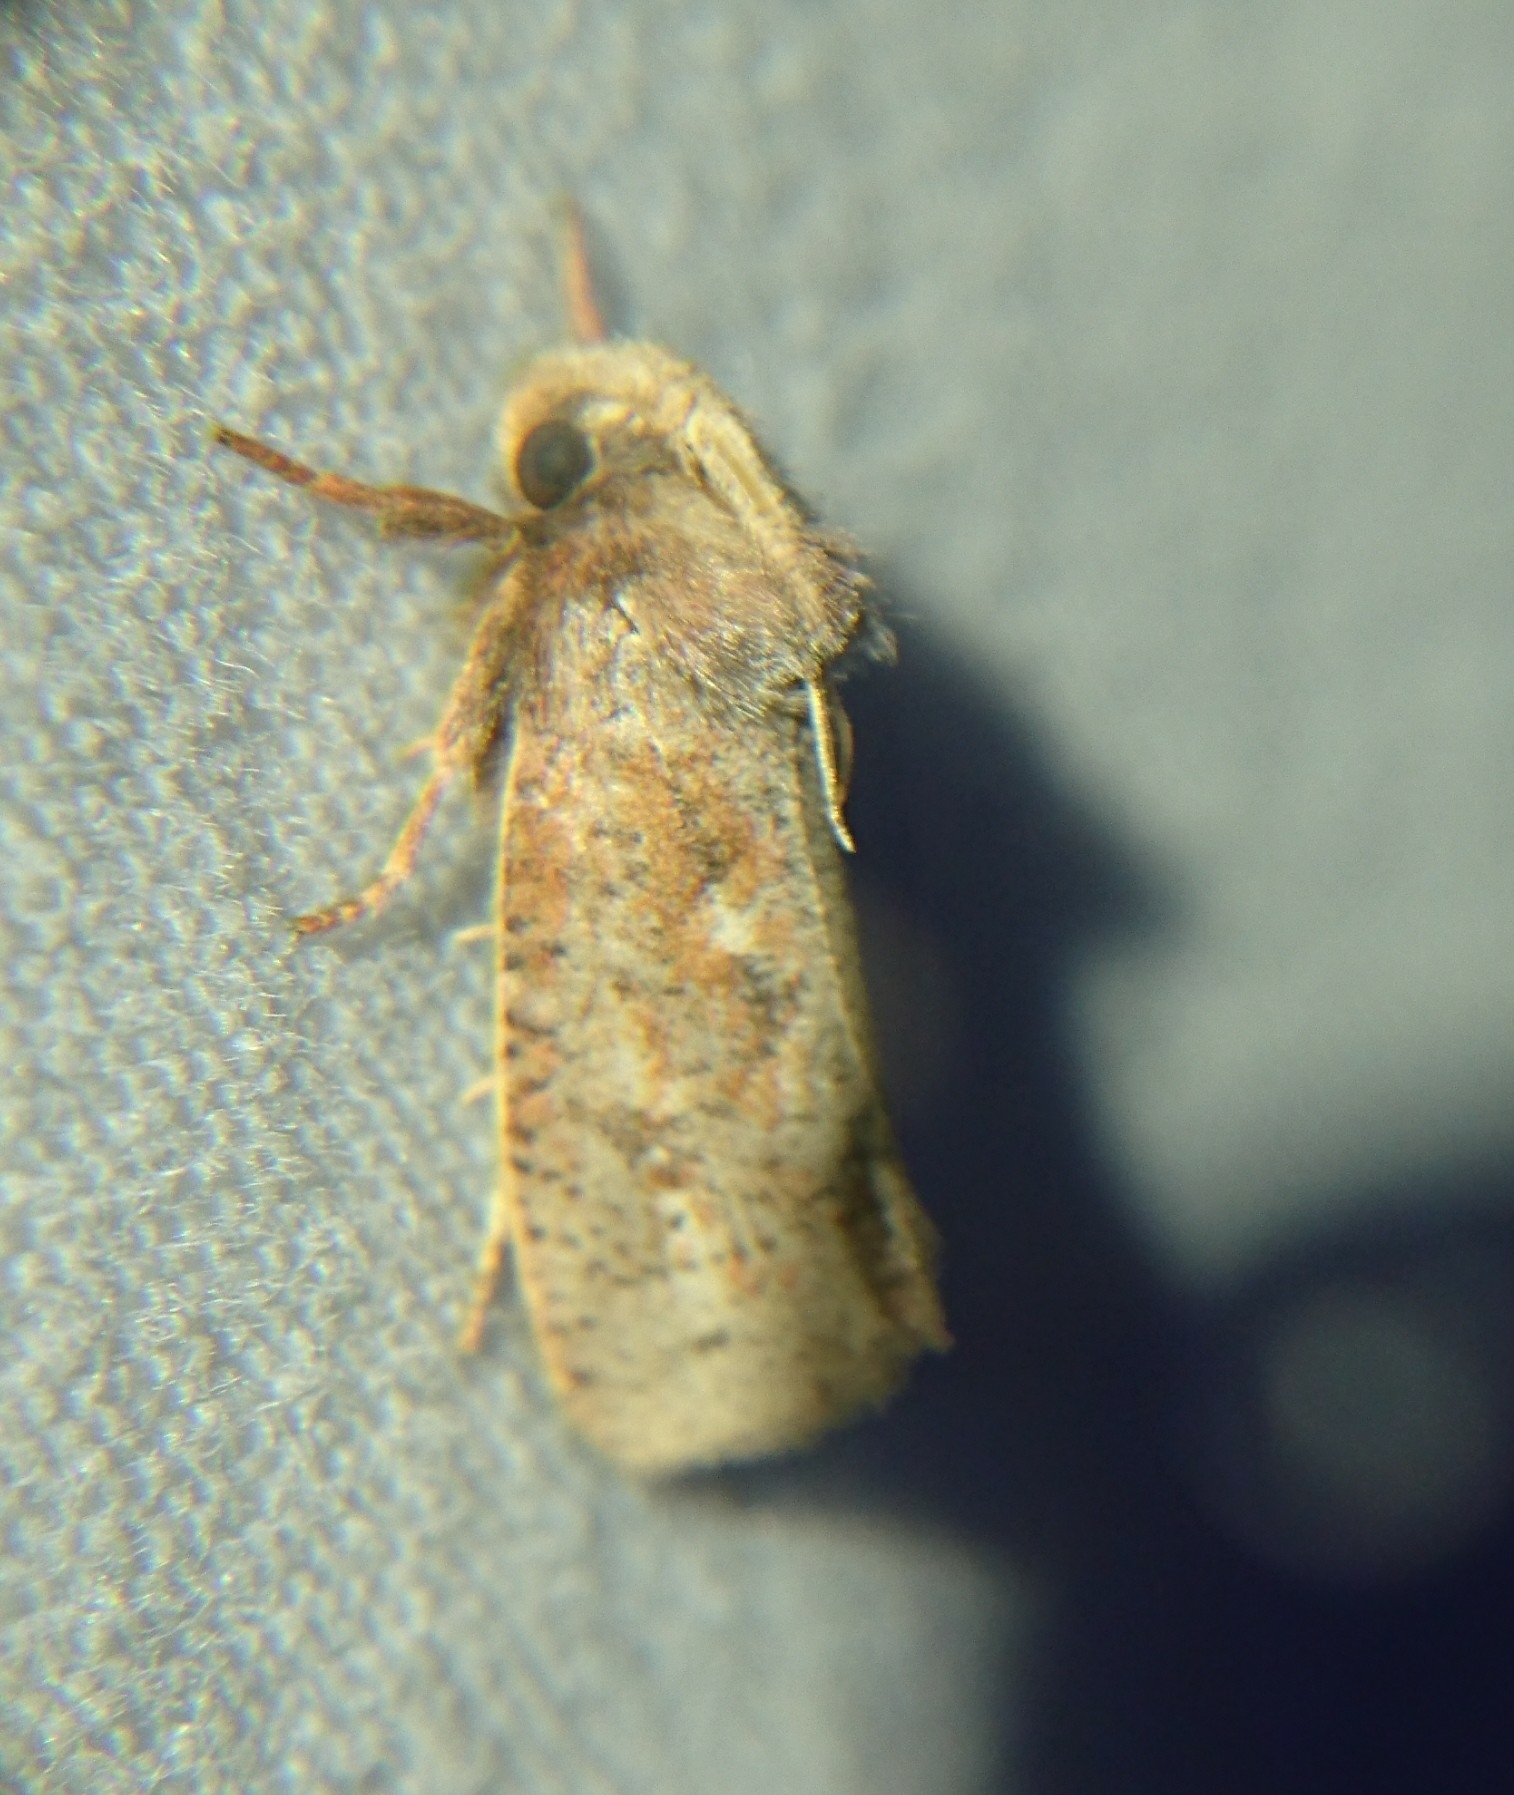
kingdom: Animalia
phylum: Arthropoda
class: Insecta
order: Lepidoptera
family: Tineidae
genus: Acrolophus
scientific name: Acrolophus plumifrontella
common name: Eastern grass tubeworm moth
